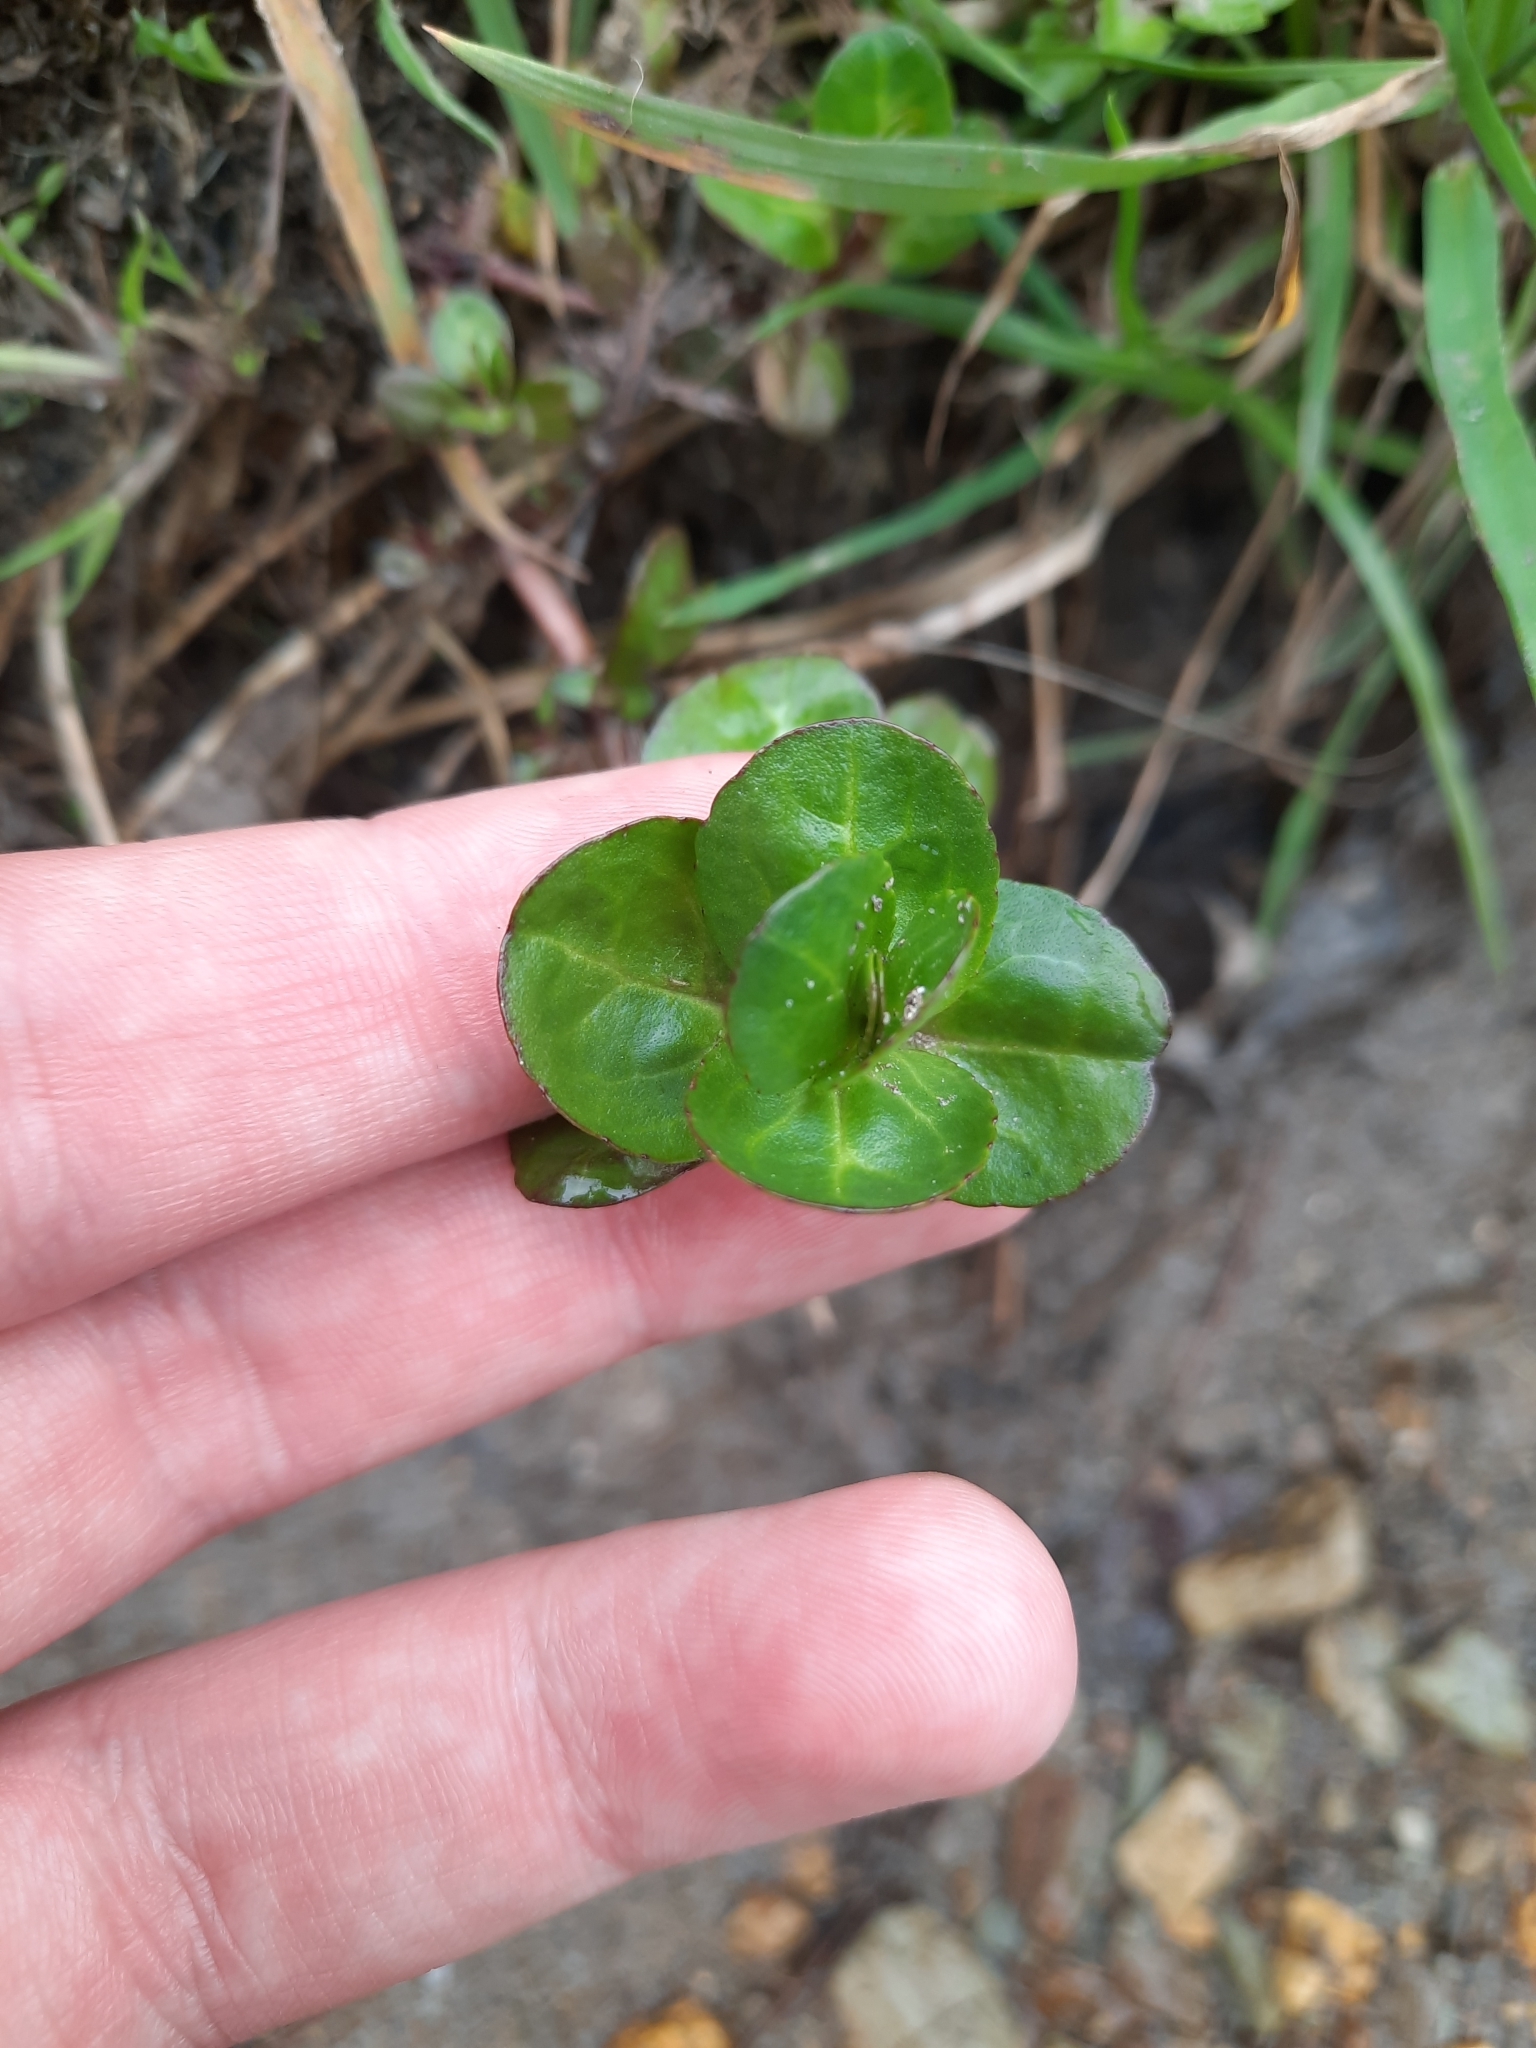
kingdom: Plantae
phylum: Tracheophyta
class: Magnoliopsida
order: Lamiales
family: Plantaginaceae
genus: Veronica
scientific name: Veronica beccabunga
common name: Brooklime
